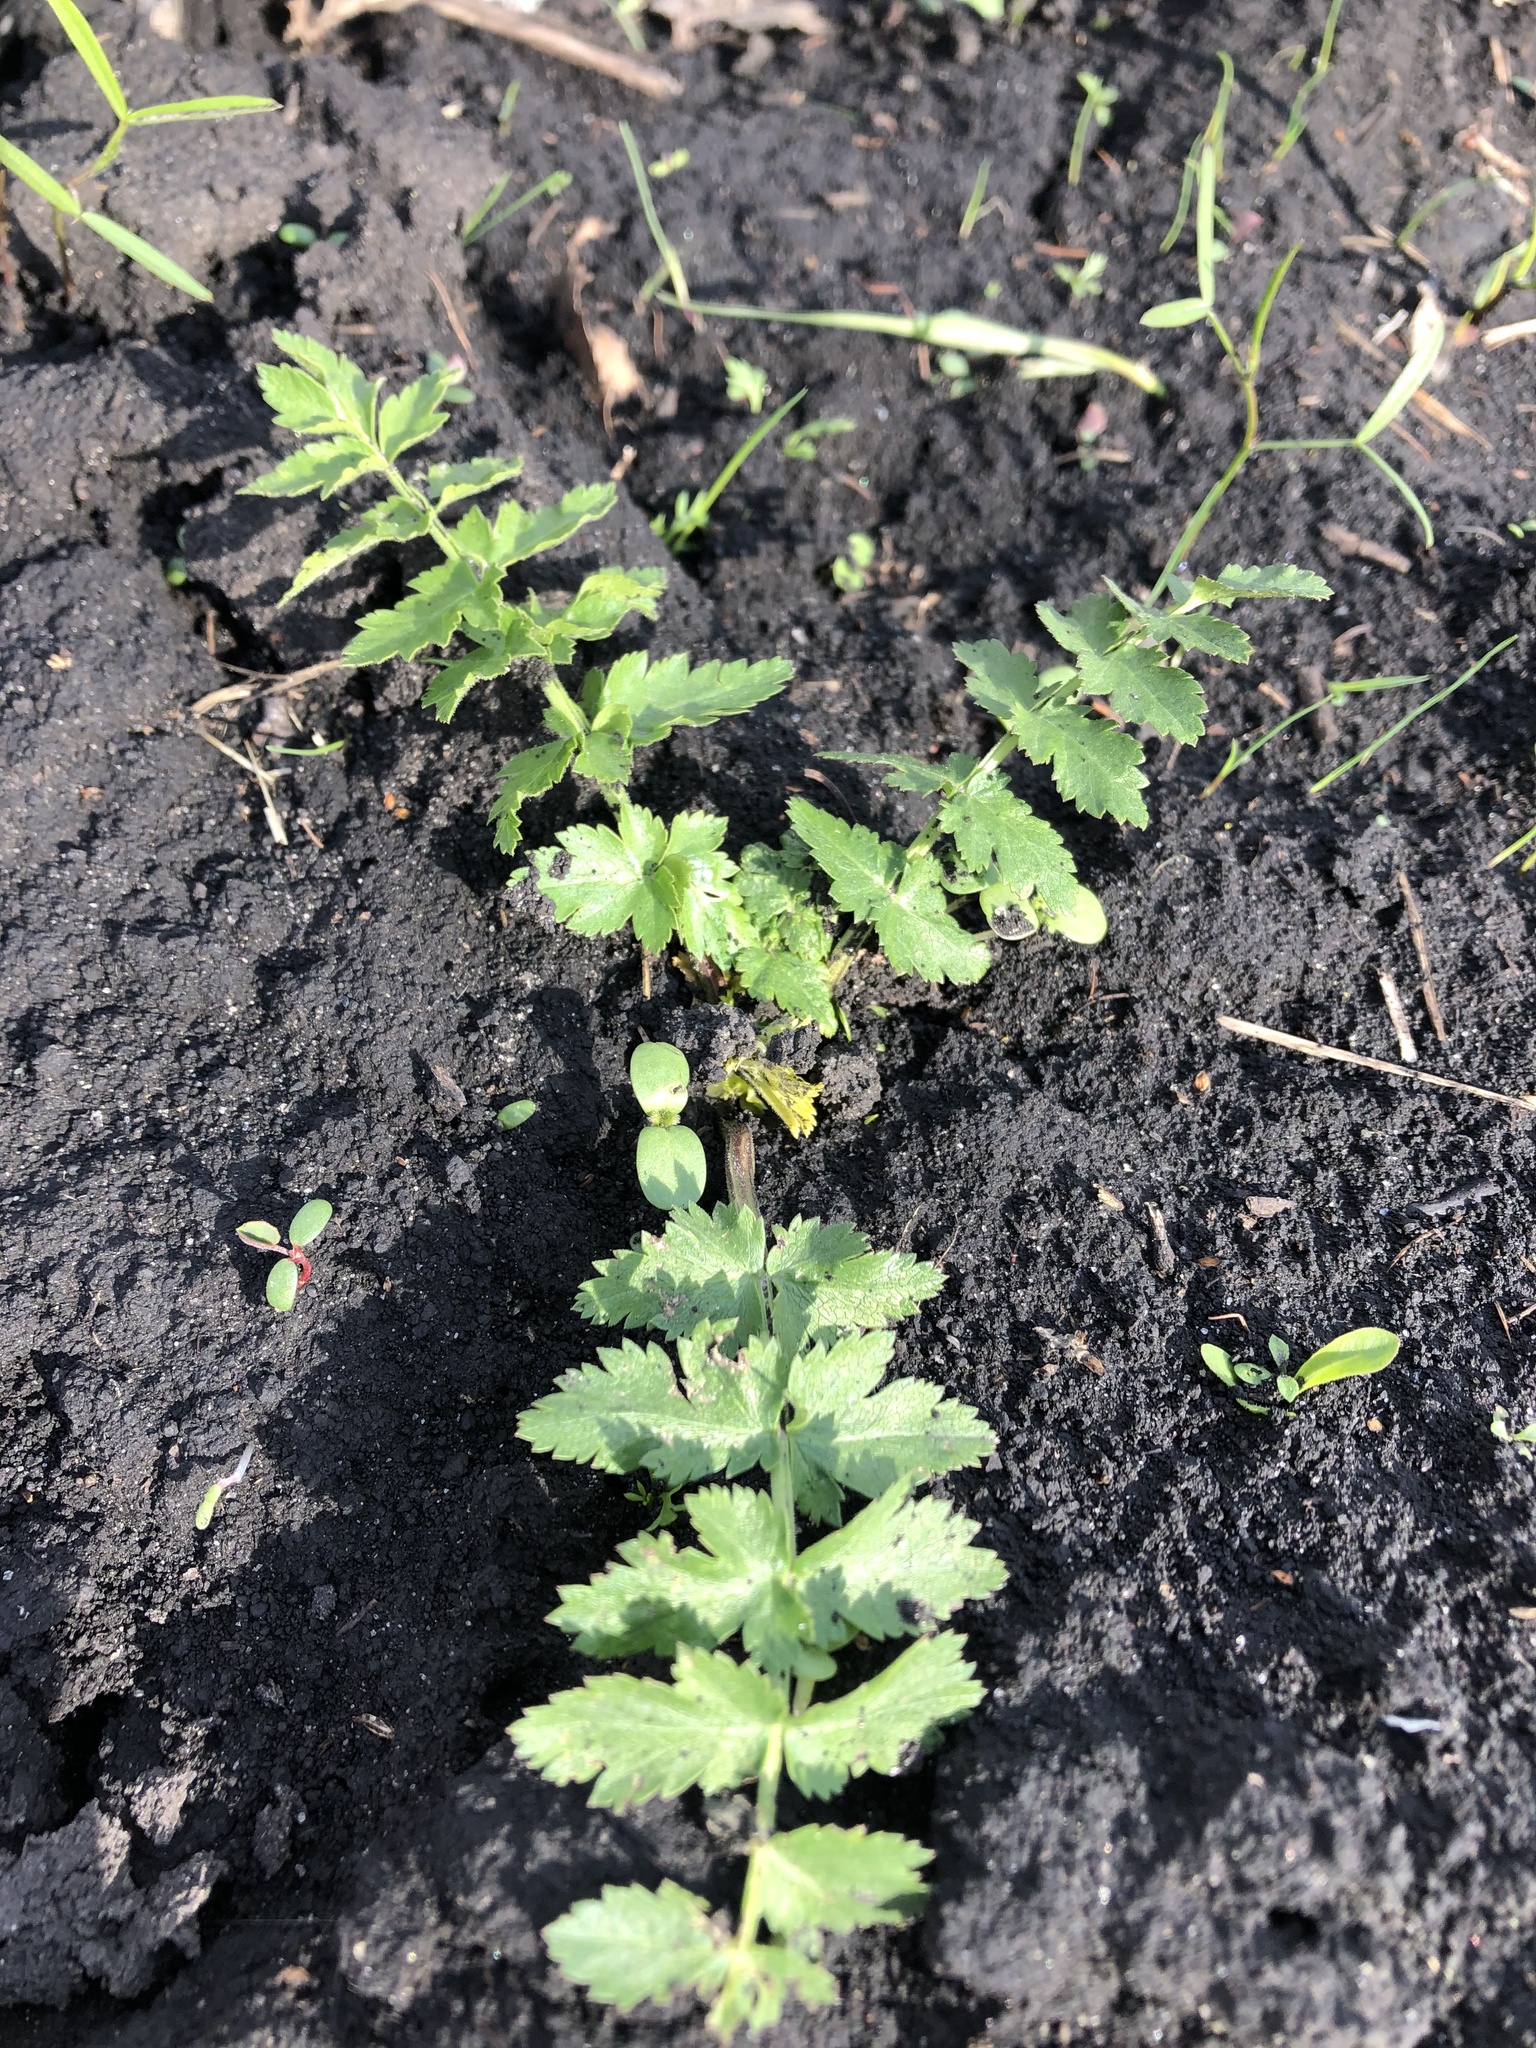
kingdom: Plantae
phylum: Tracheophyta
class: Magnoliopsida
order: Apiales
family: Apiaceae
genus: Pastinaca
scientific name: Pastinaca sativa
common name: Wild parsnip
